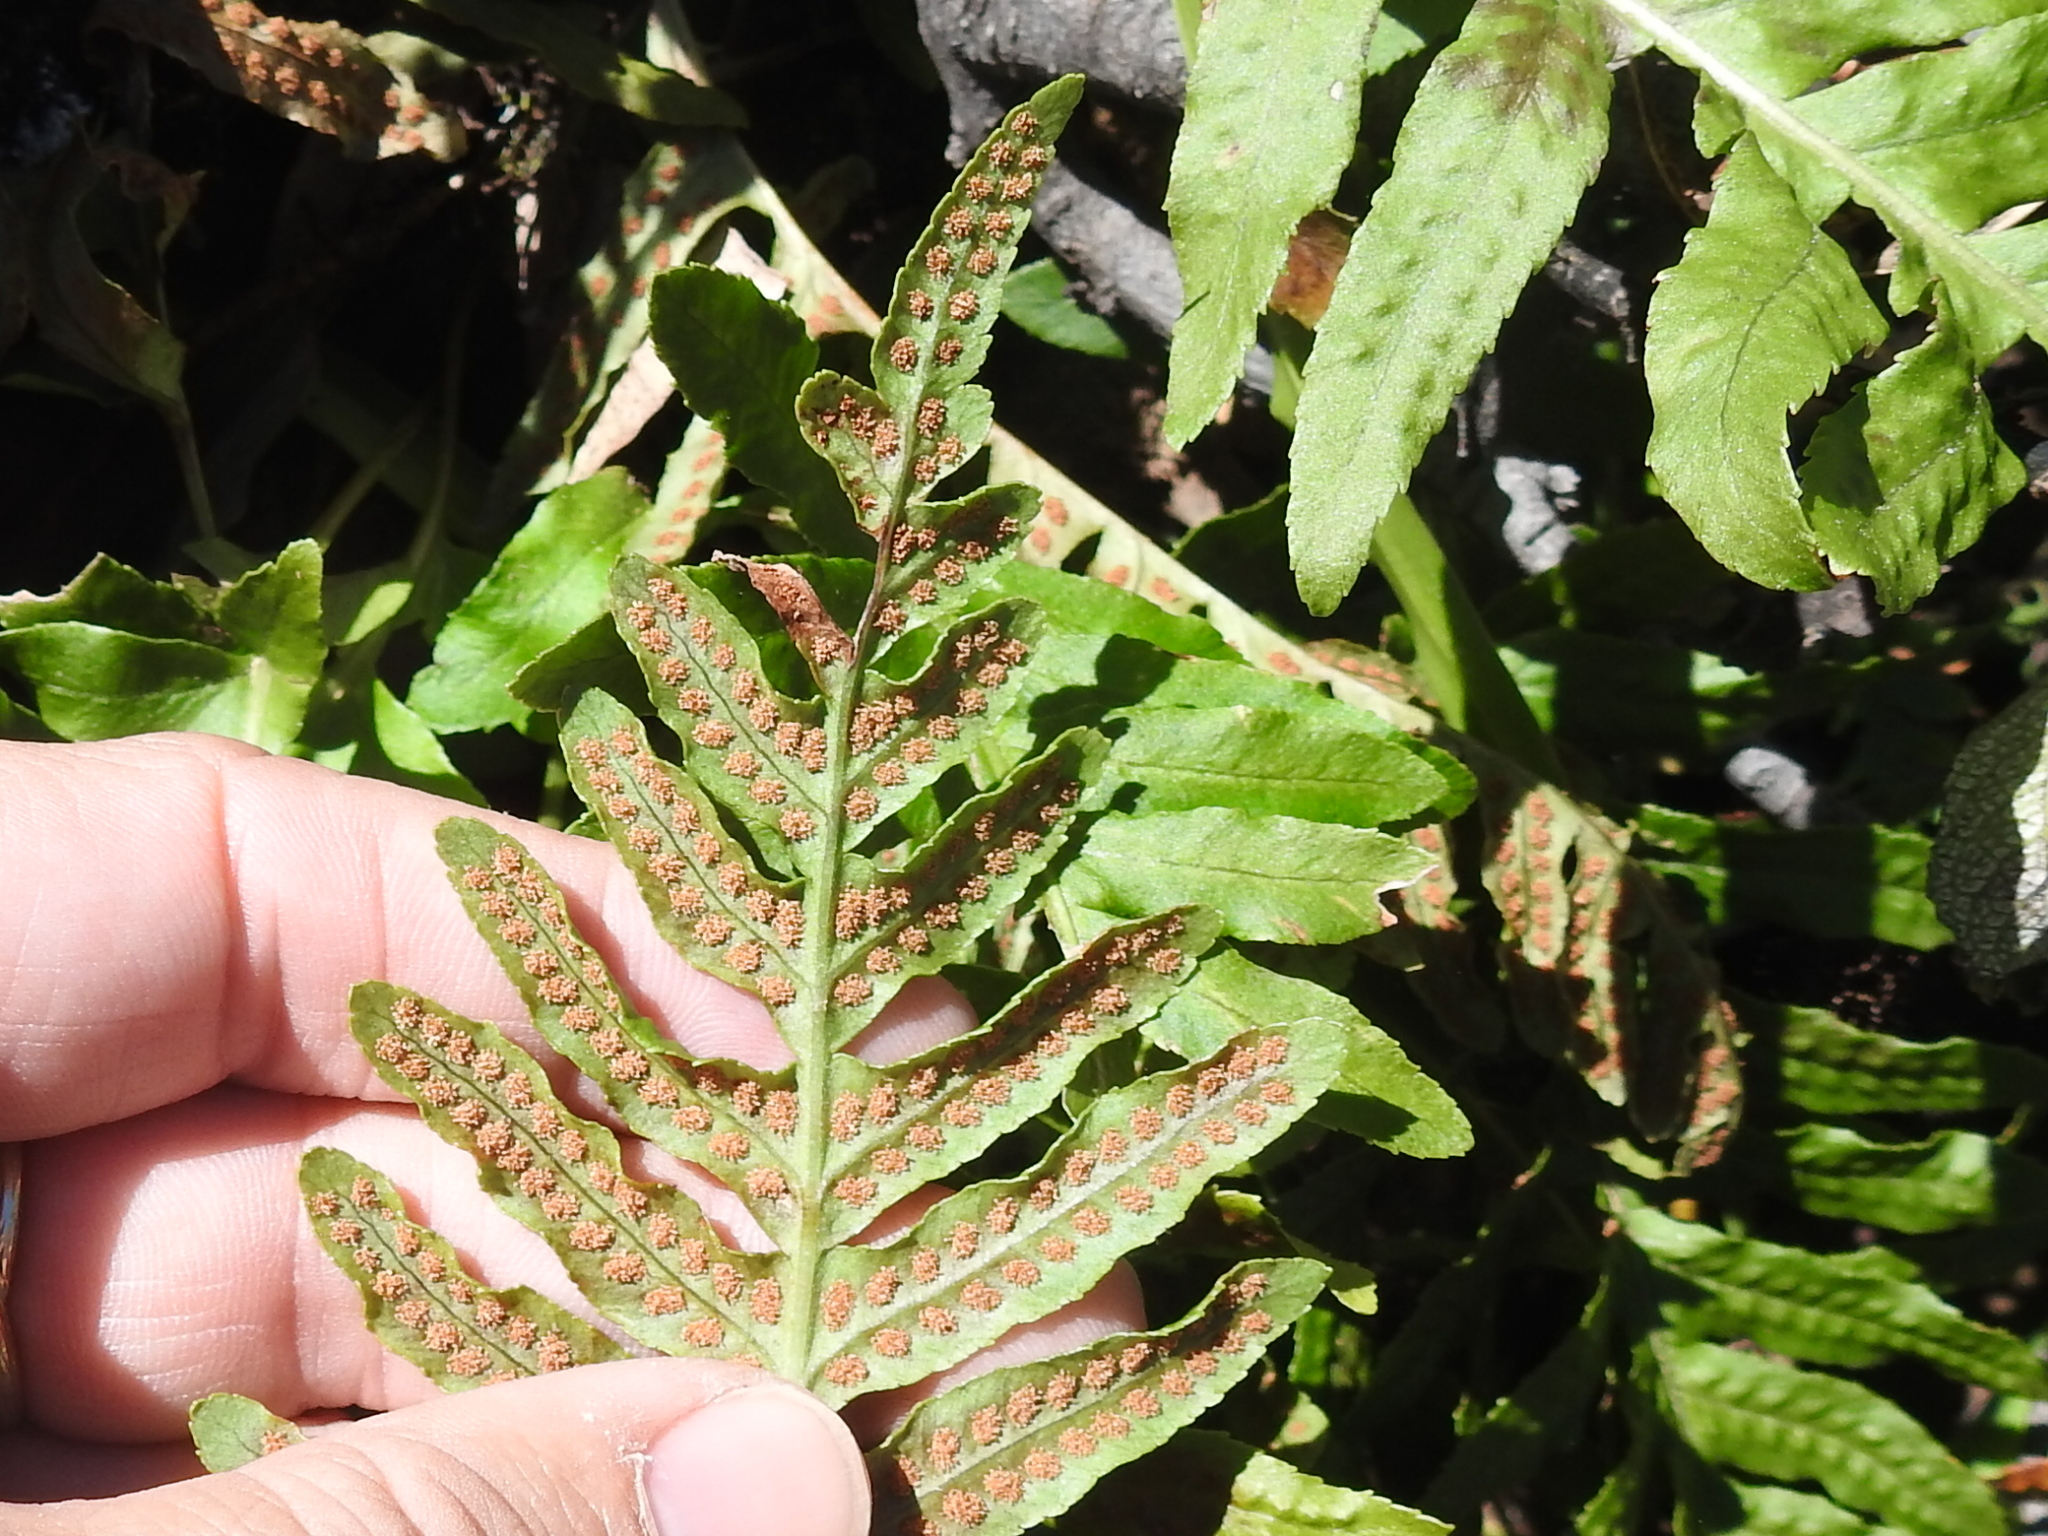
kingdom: Plantae
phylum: Tracheophyta
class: Polypodiopsida
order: Polypodiales
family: Polypodiaceae
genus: Polypodium
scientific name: Polypodium calirhiza
